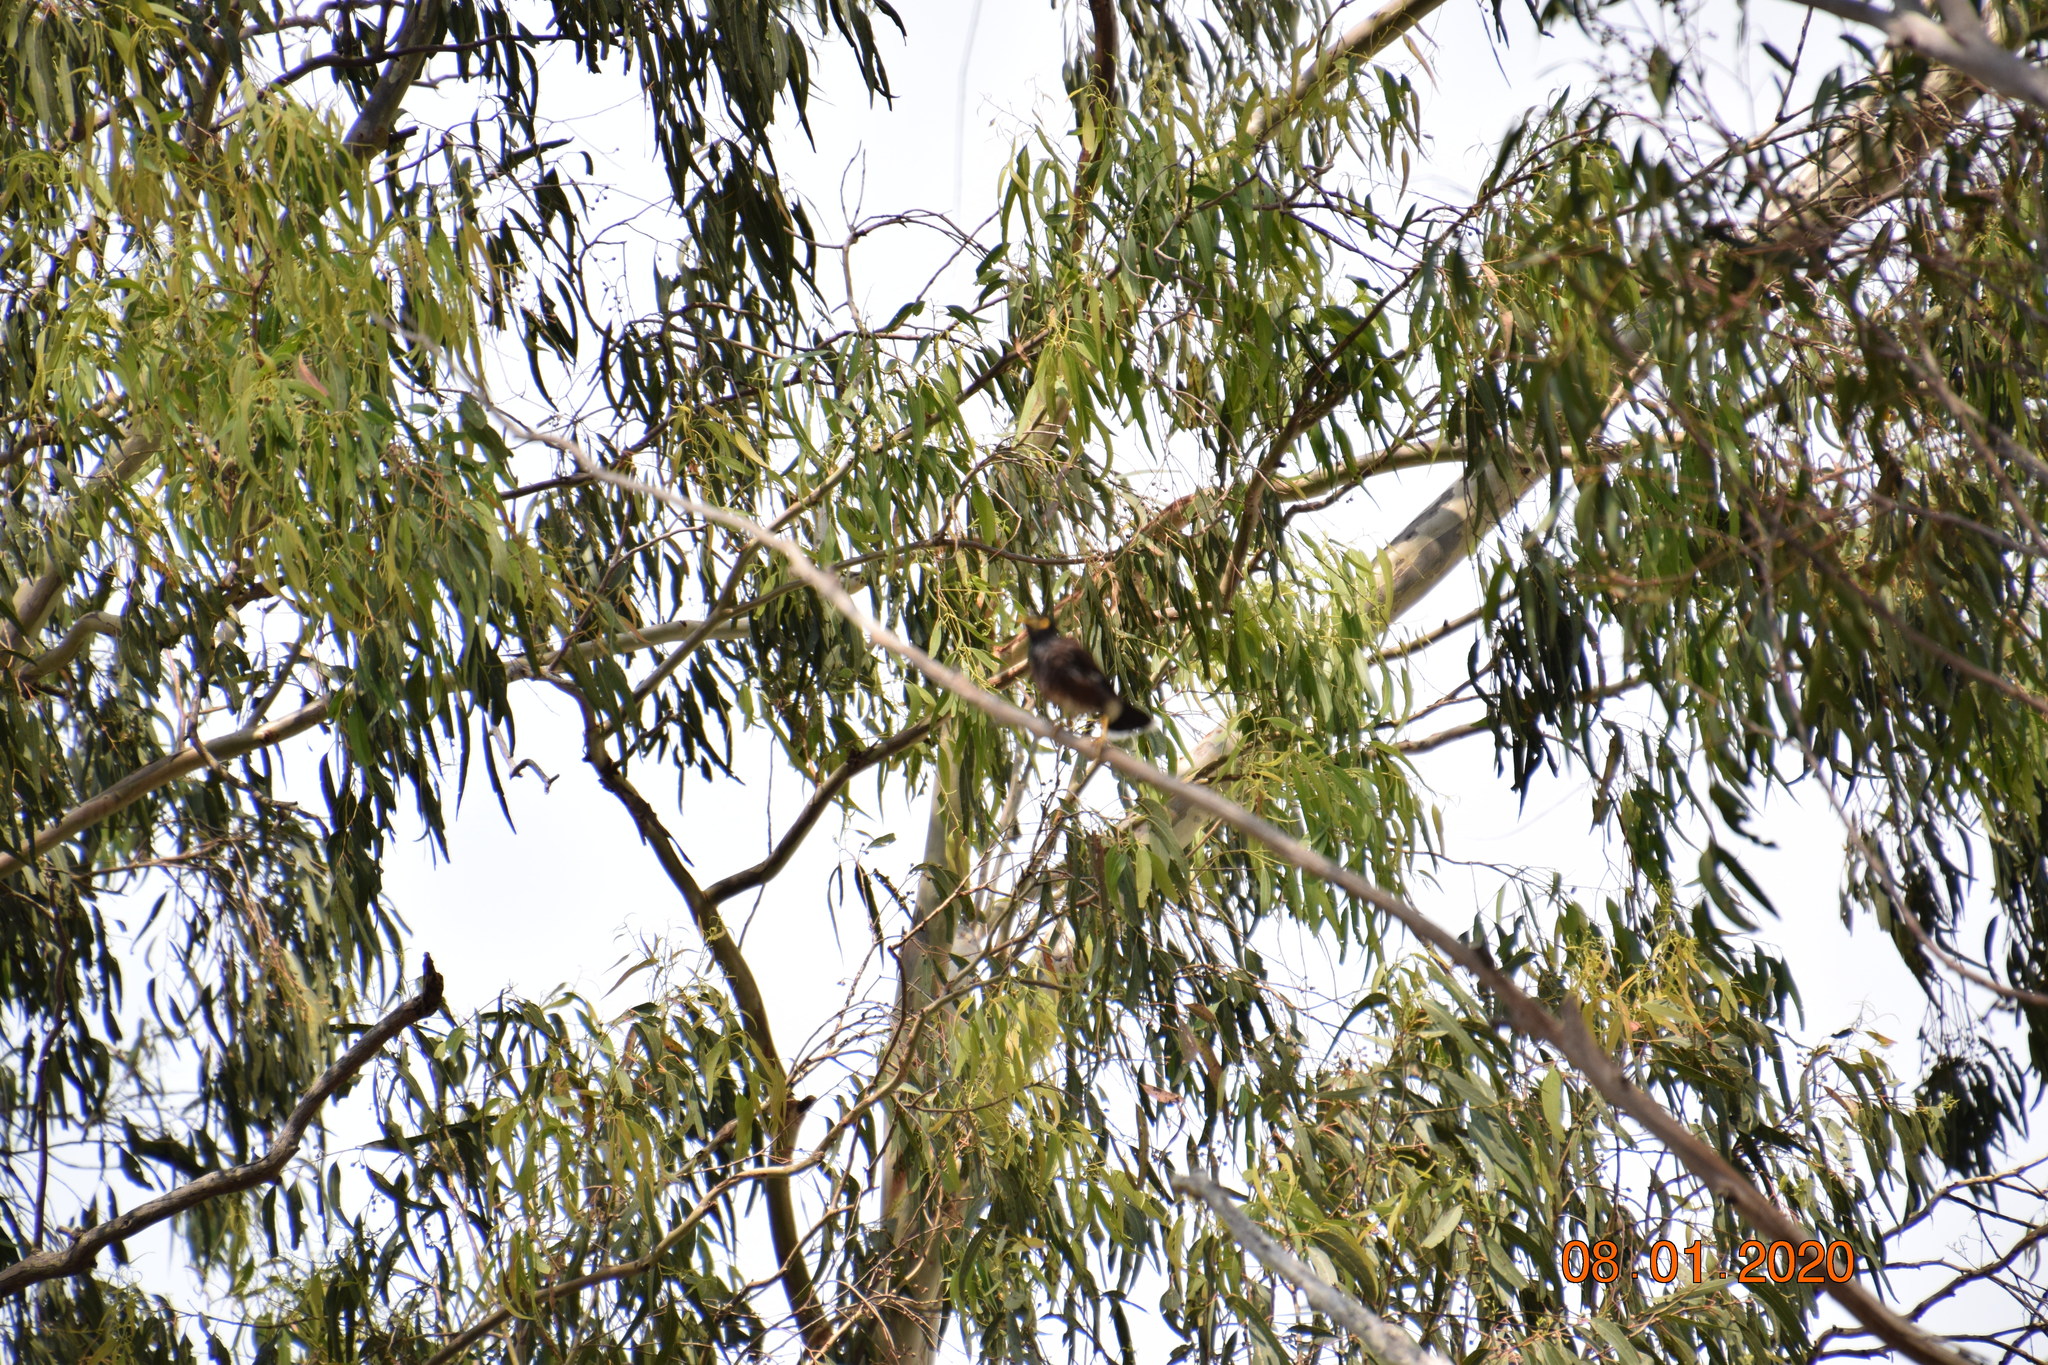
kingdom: Animalia
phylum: Chordata
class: Aves
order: Passeriformes
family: Sturnidae
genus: Acridotheres
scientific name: Acridotheres tristis
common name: Common myna
